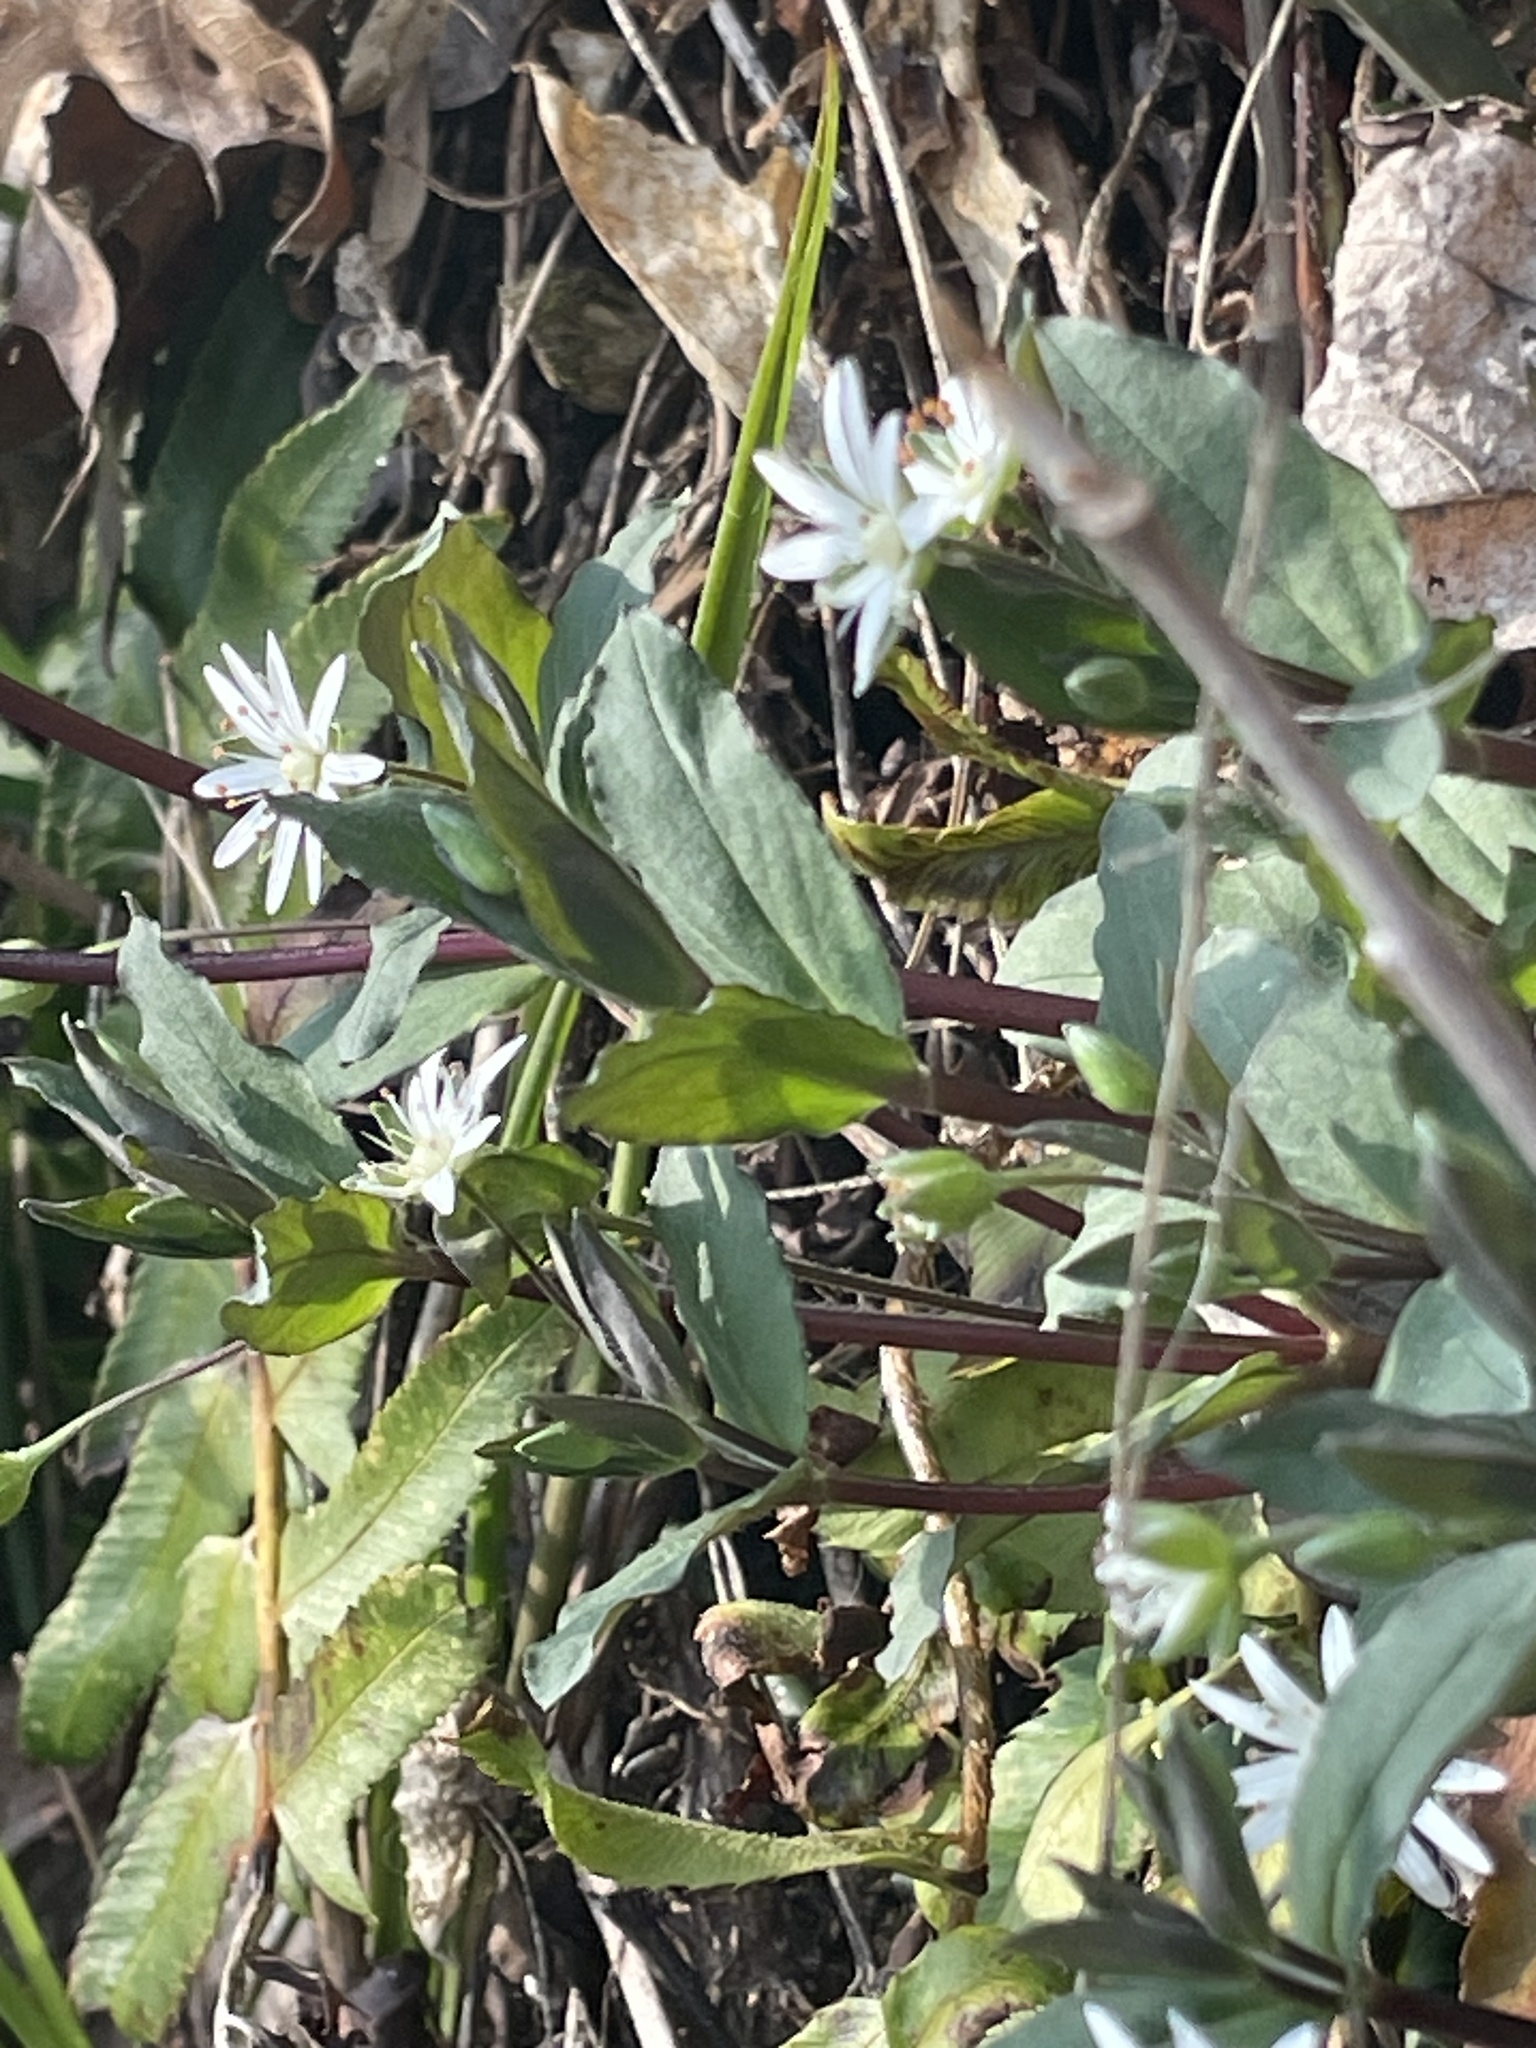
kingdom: Plantae
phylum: Tracheophyta
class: Magnoliopsida
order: Caryophyllales
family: Caryophyllaceae
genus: Stellaria
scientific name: Stellaria pubera
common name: Star chickweed
